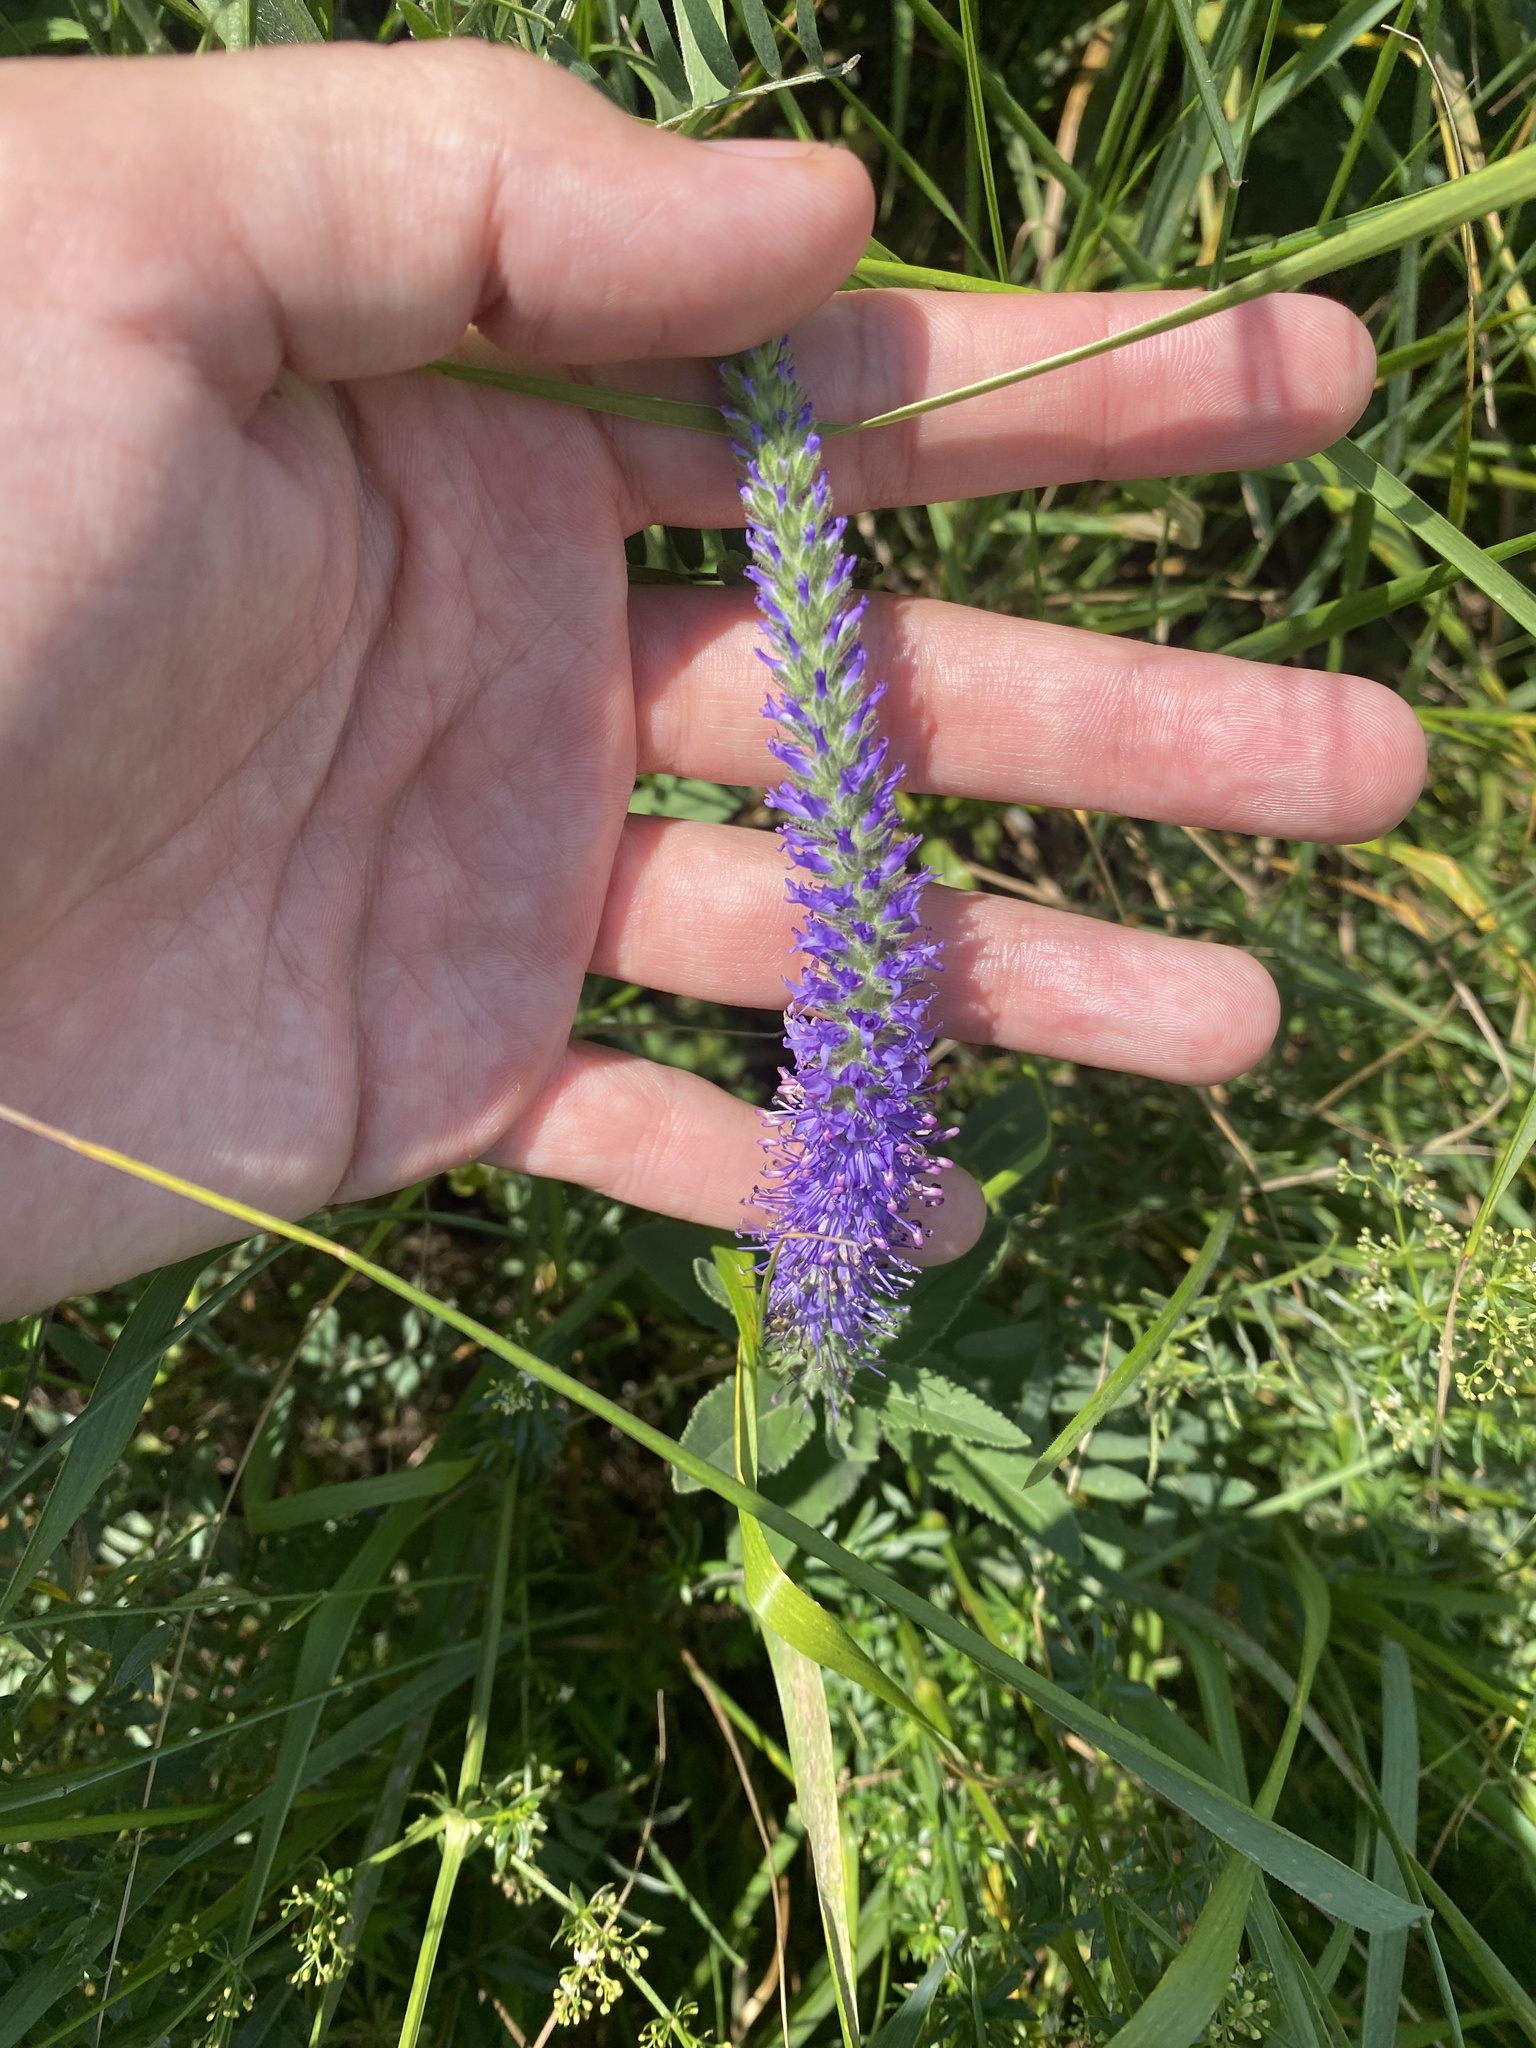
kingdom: Plantae
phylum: Tracheophyta
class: Magnoliopsida
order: Lamiales
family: Plantaginaceae
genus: Veronica
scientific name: Veronica spicata
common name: Spiked speedwell
